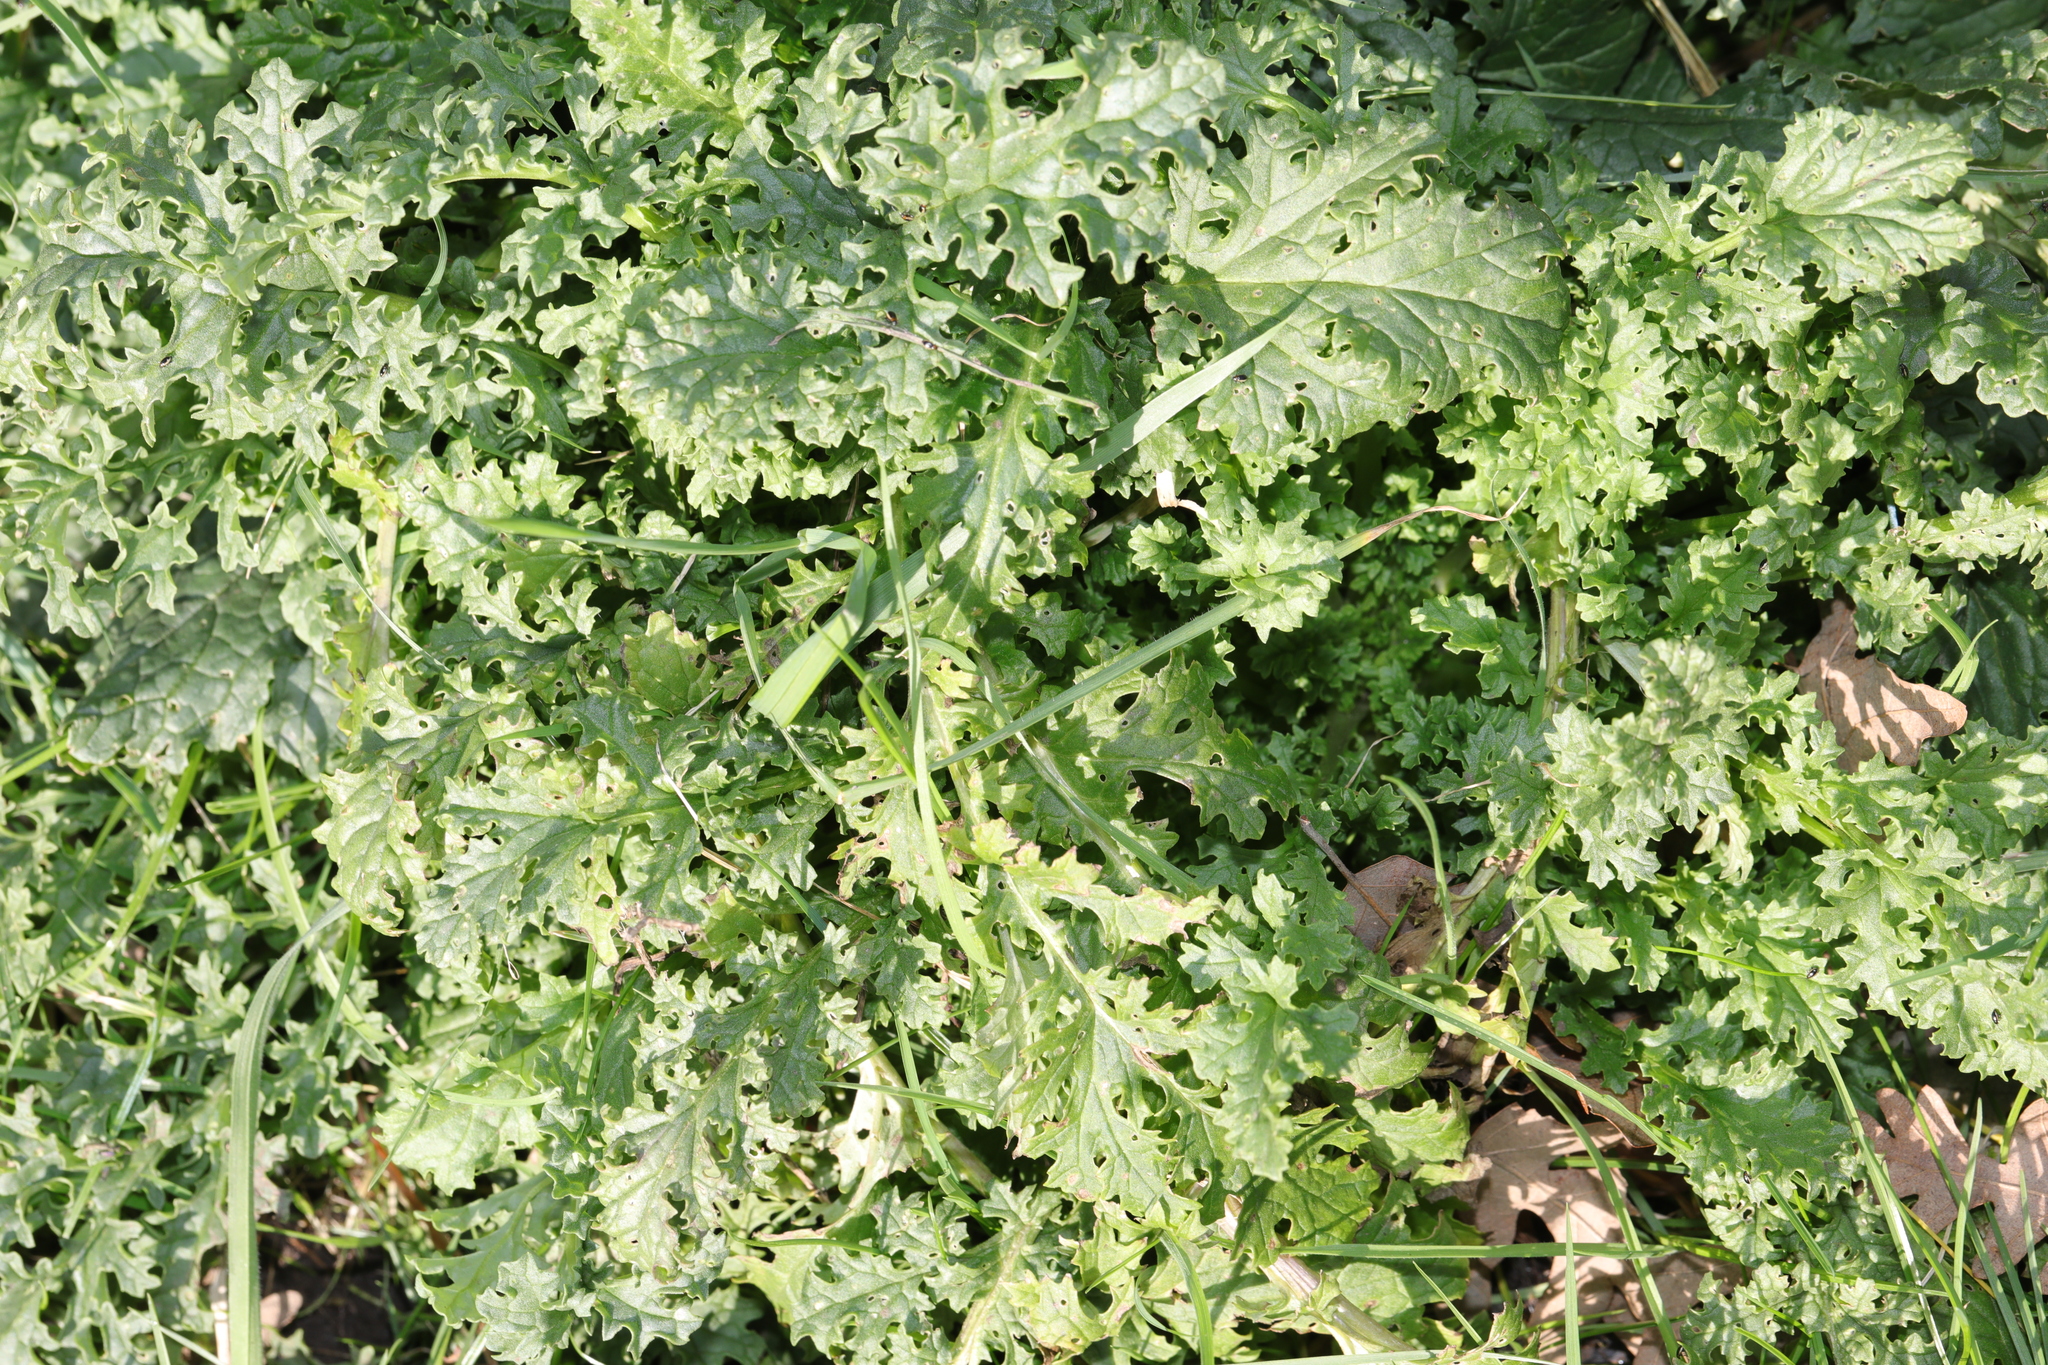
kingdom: Plantae
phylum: Tracheophyta
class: Magnoliopsida
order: Asterales
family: Asteraceae
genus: Jacobaea
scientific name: Jacobaea vulgaris
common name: Stinking willie
